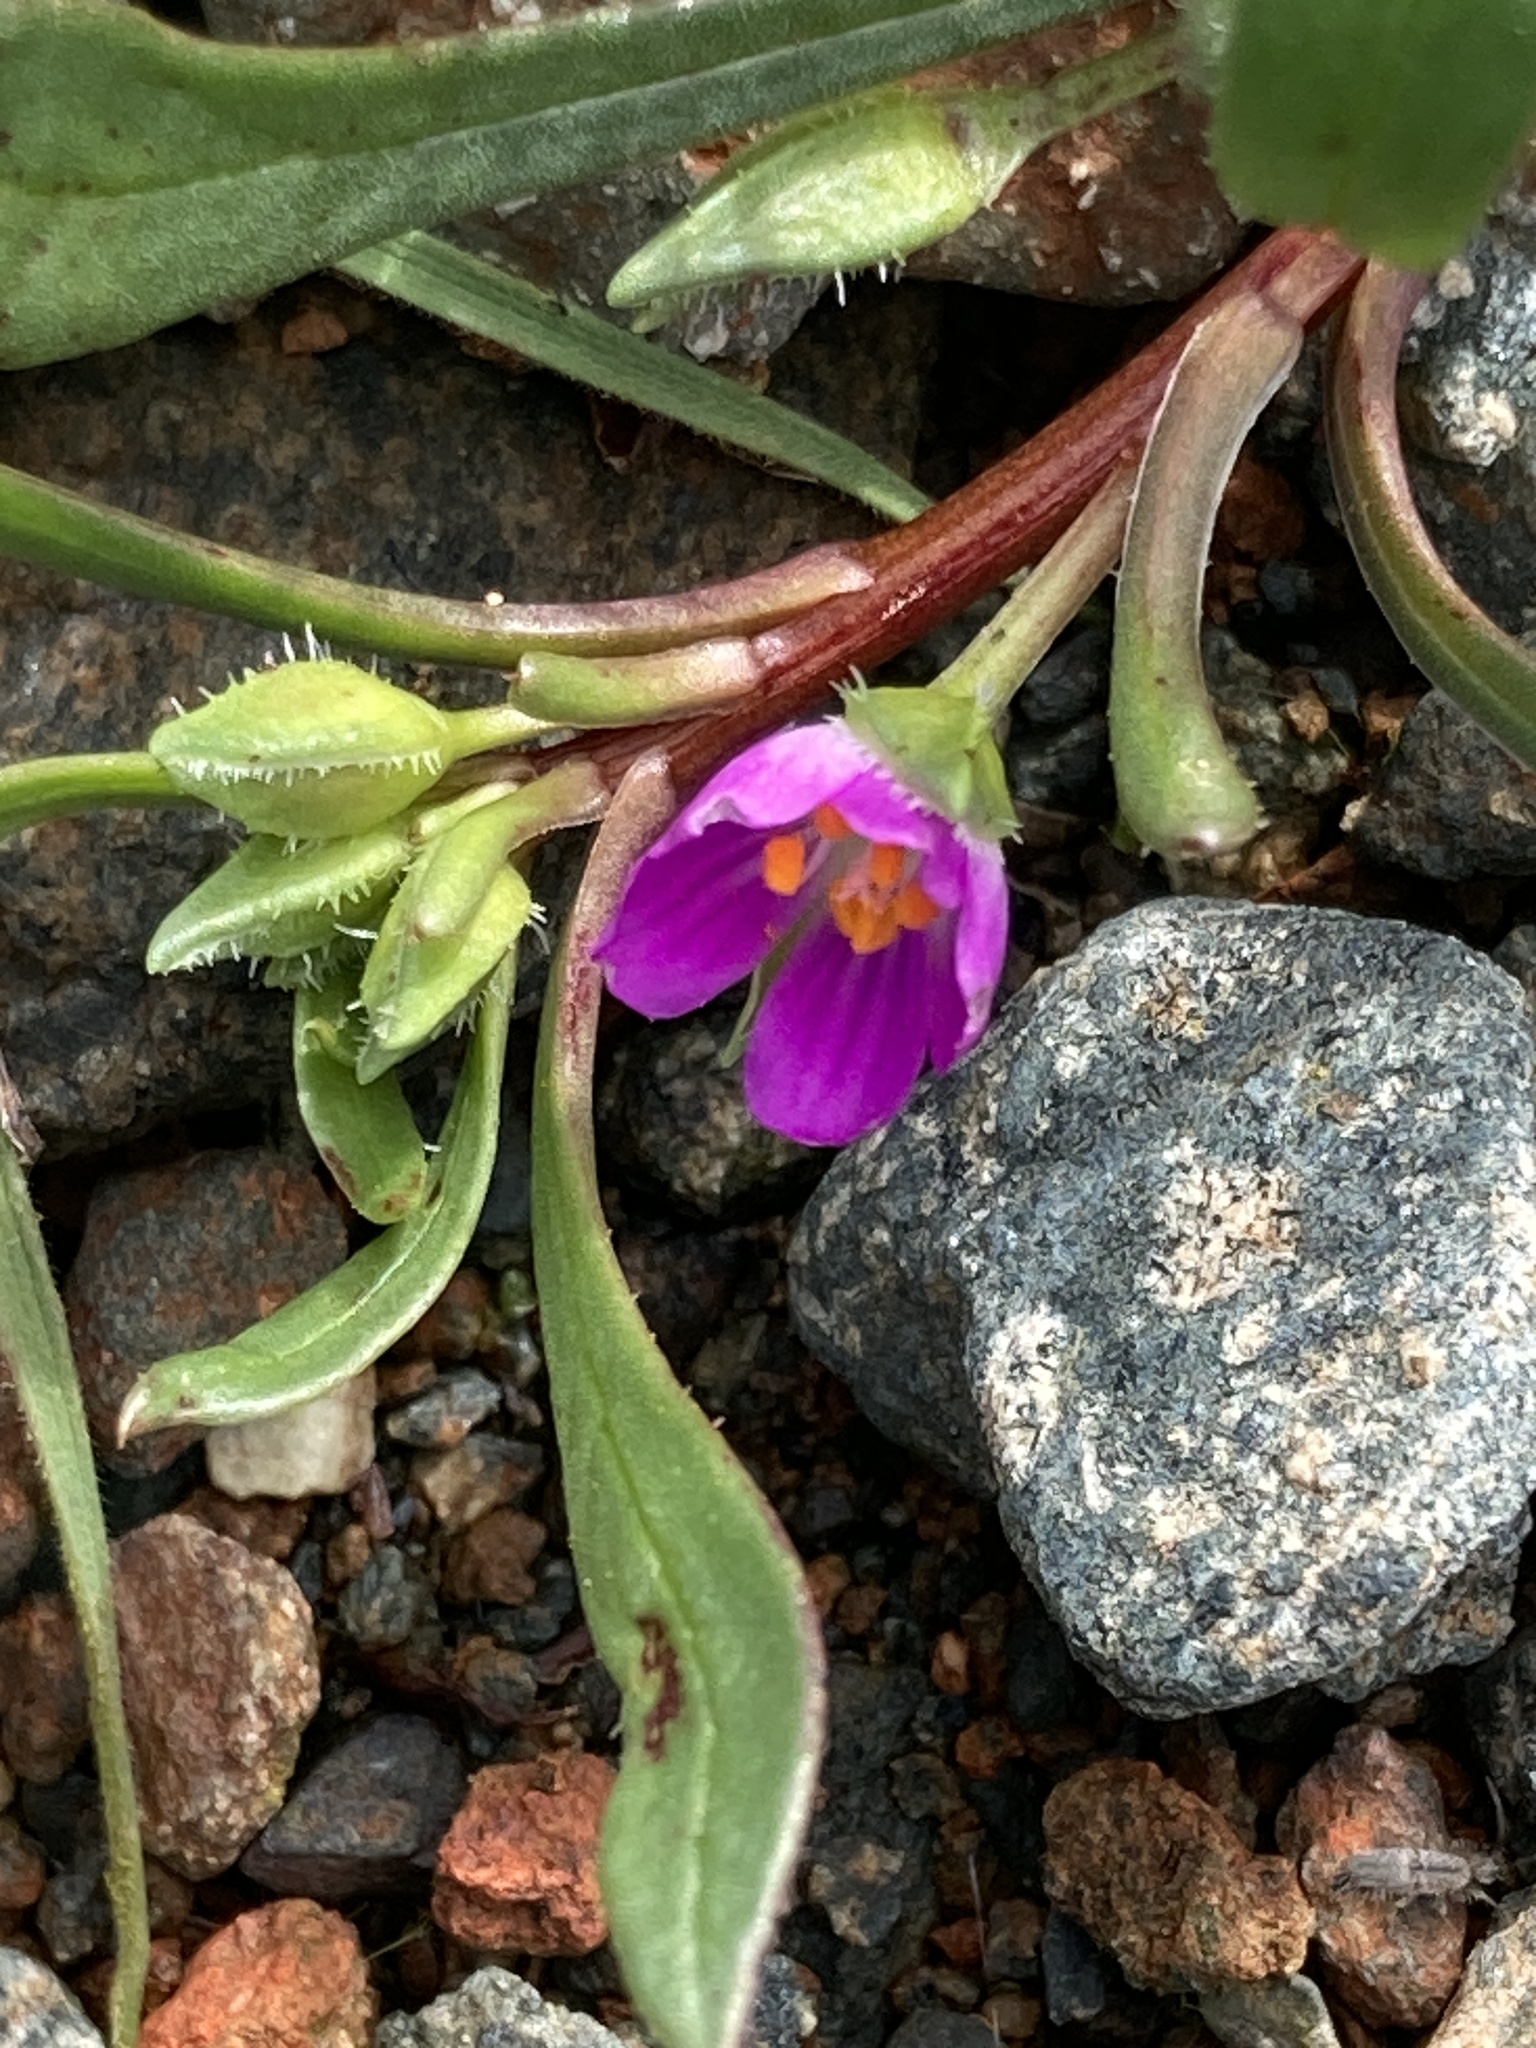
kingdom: Plantae
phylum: Tracheophyta
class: Magnoliopsida
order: Caryophyllales
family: Montiaceae
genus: Calandrinia
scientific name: Calandrinia menziesii
